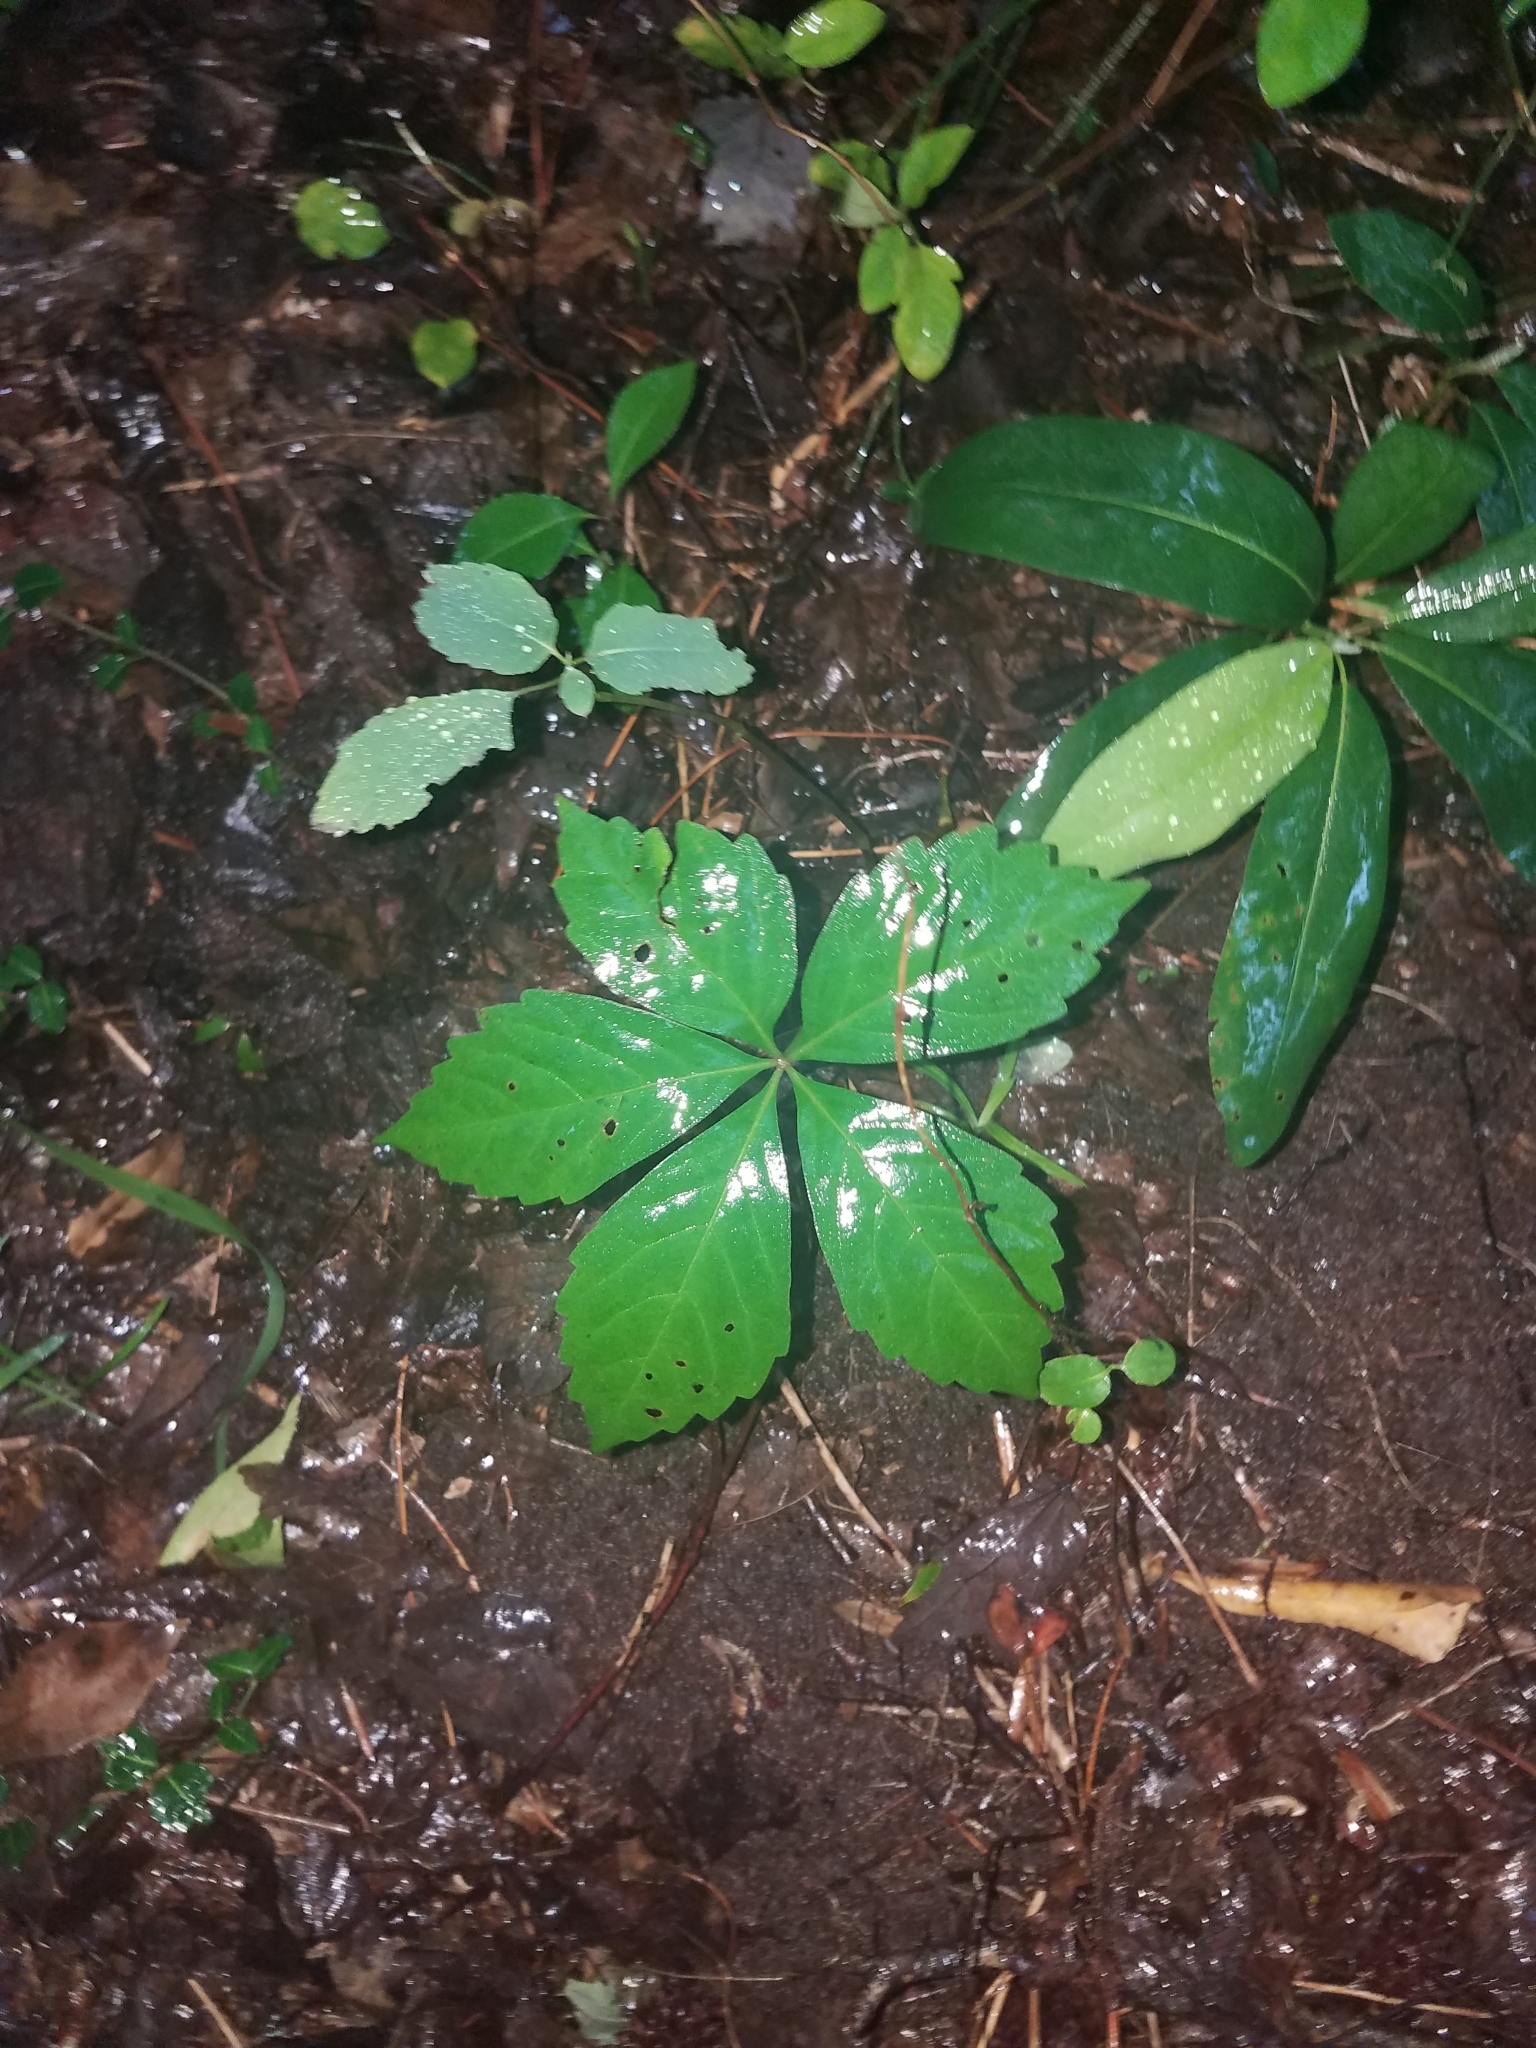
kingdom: Plantae
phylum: Tracheophyta
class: Magnoliopsida
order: Vitales
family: Vitaceae
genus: Parthenocissus
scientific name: Parthenocissus quinquefolia
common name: Virginia-creeper
